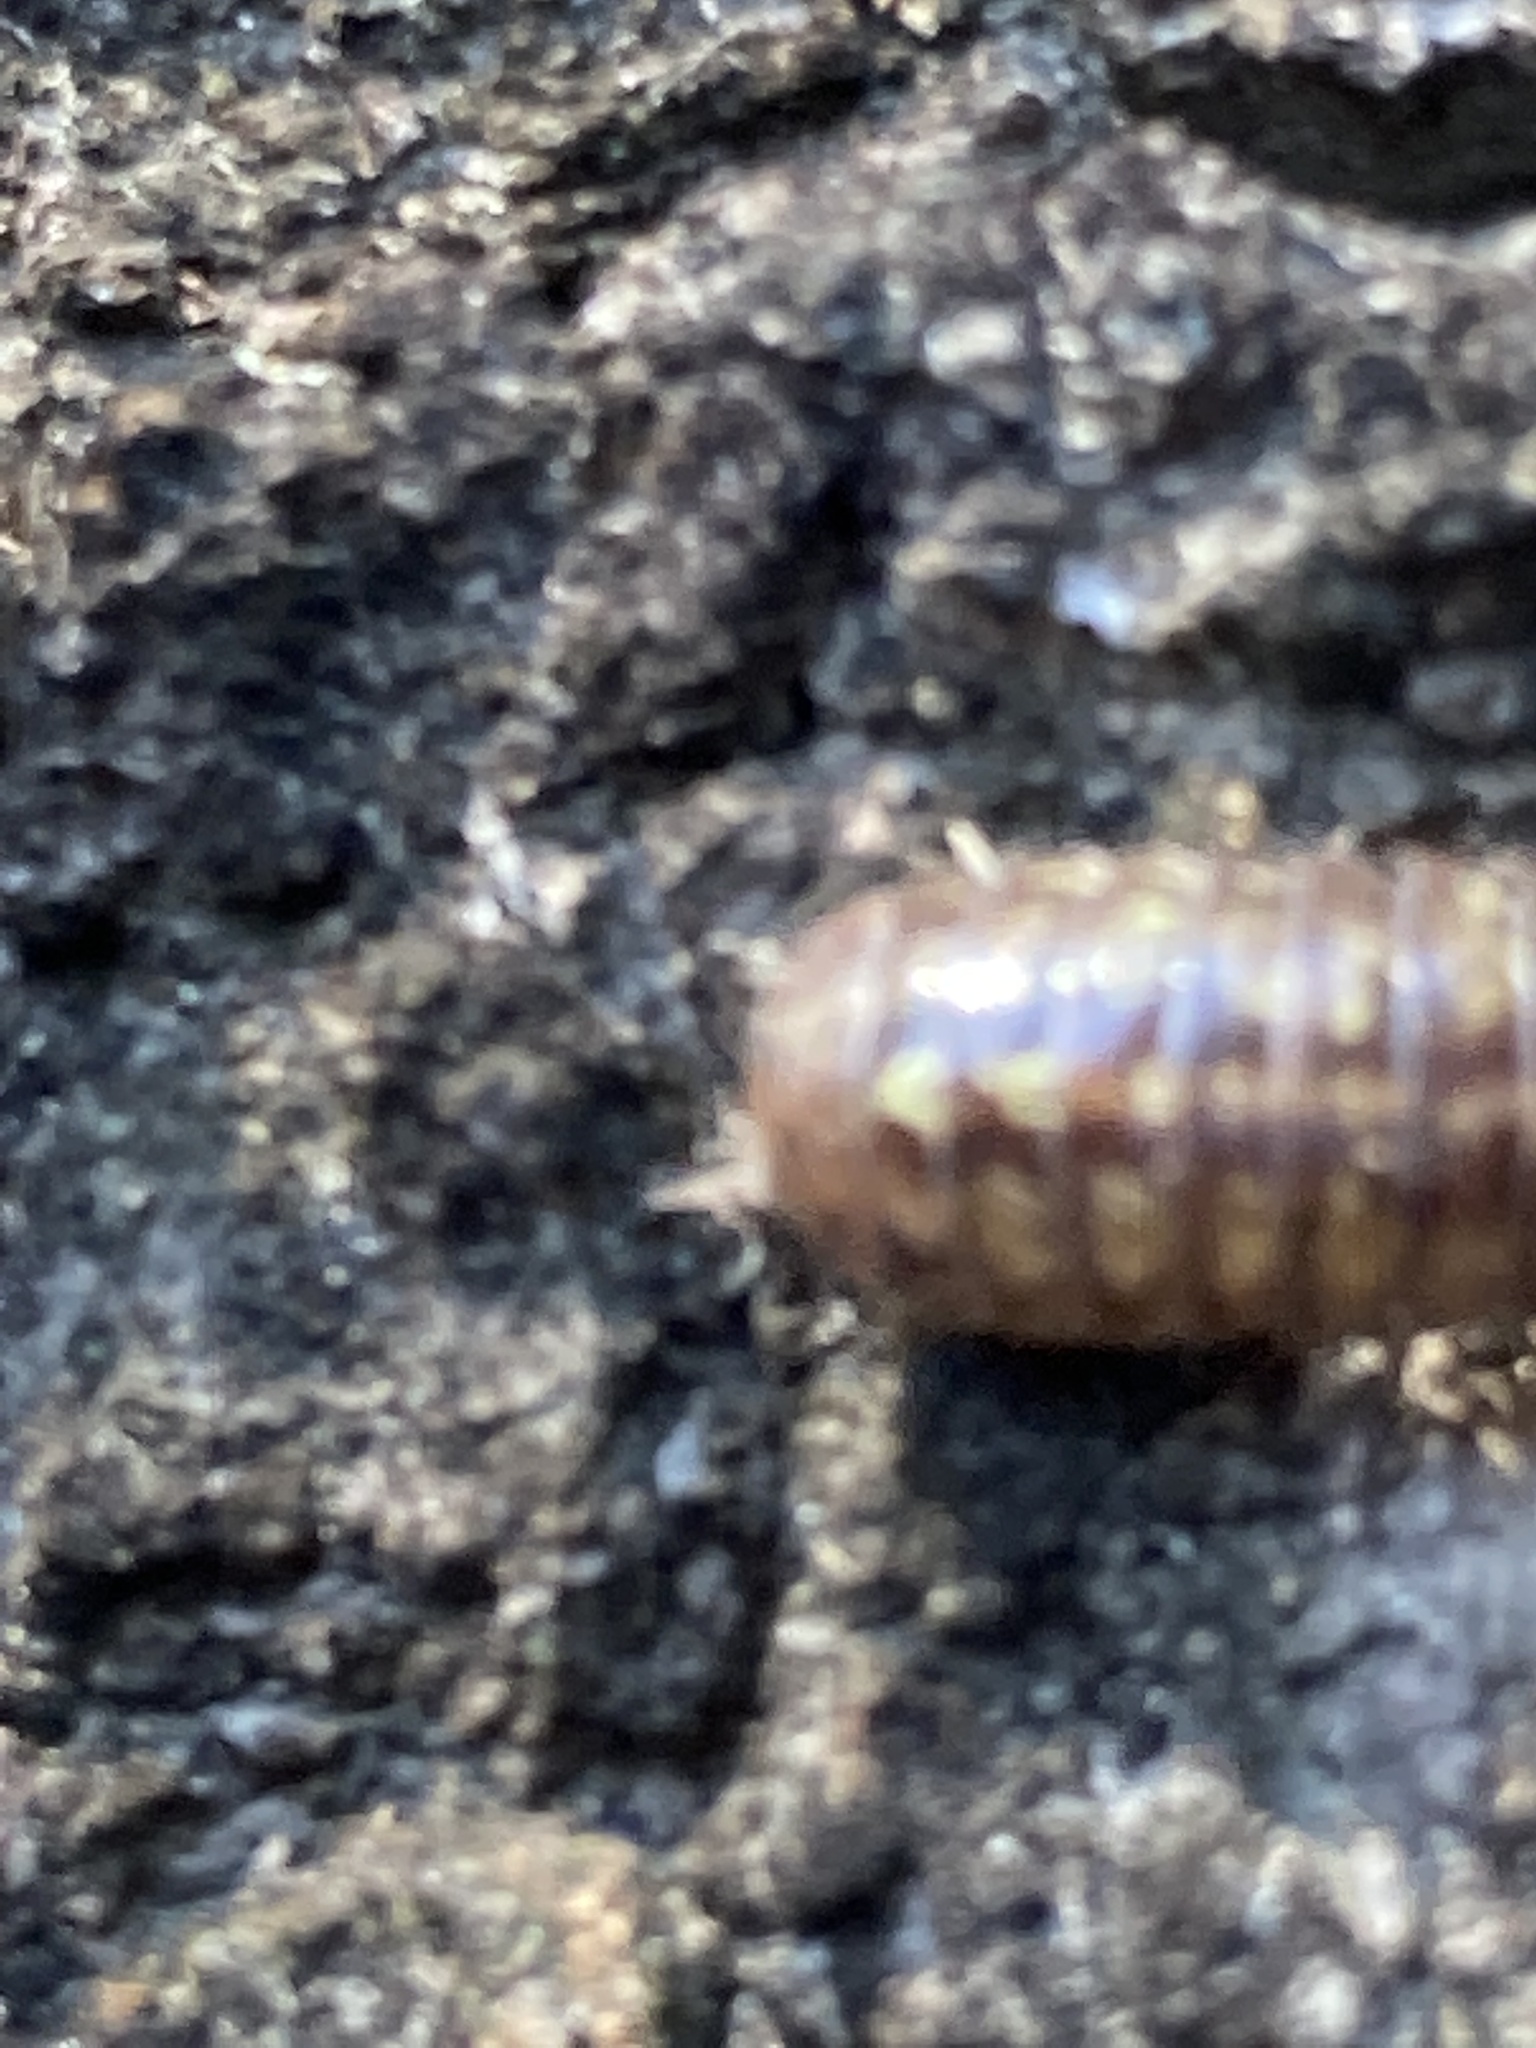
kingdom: Animalia
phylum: Arthropoda
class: Malacostraca
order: Isopoda
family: Armadillidiidae
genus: Armadillidium
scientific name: Armadillidium vulgare
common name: Common pill woodlouse
